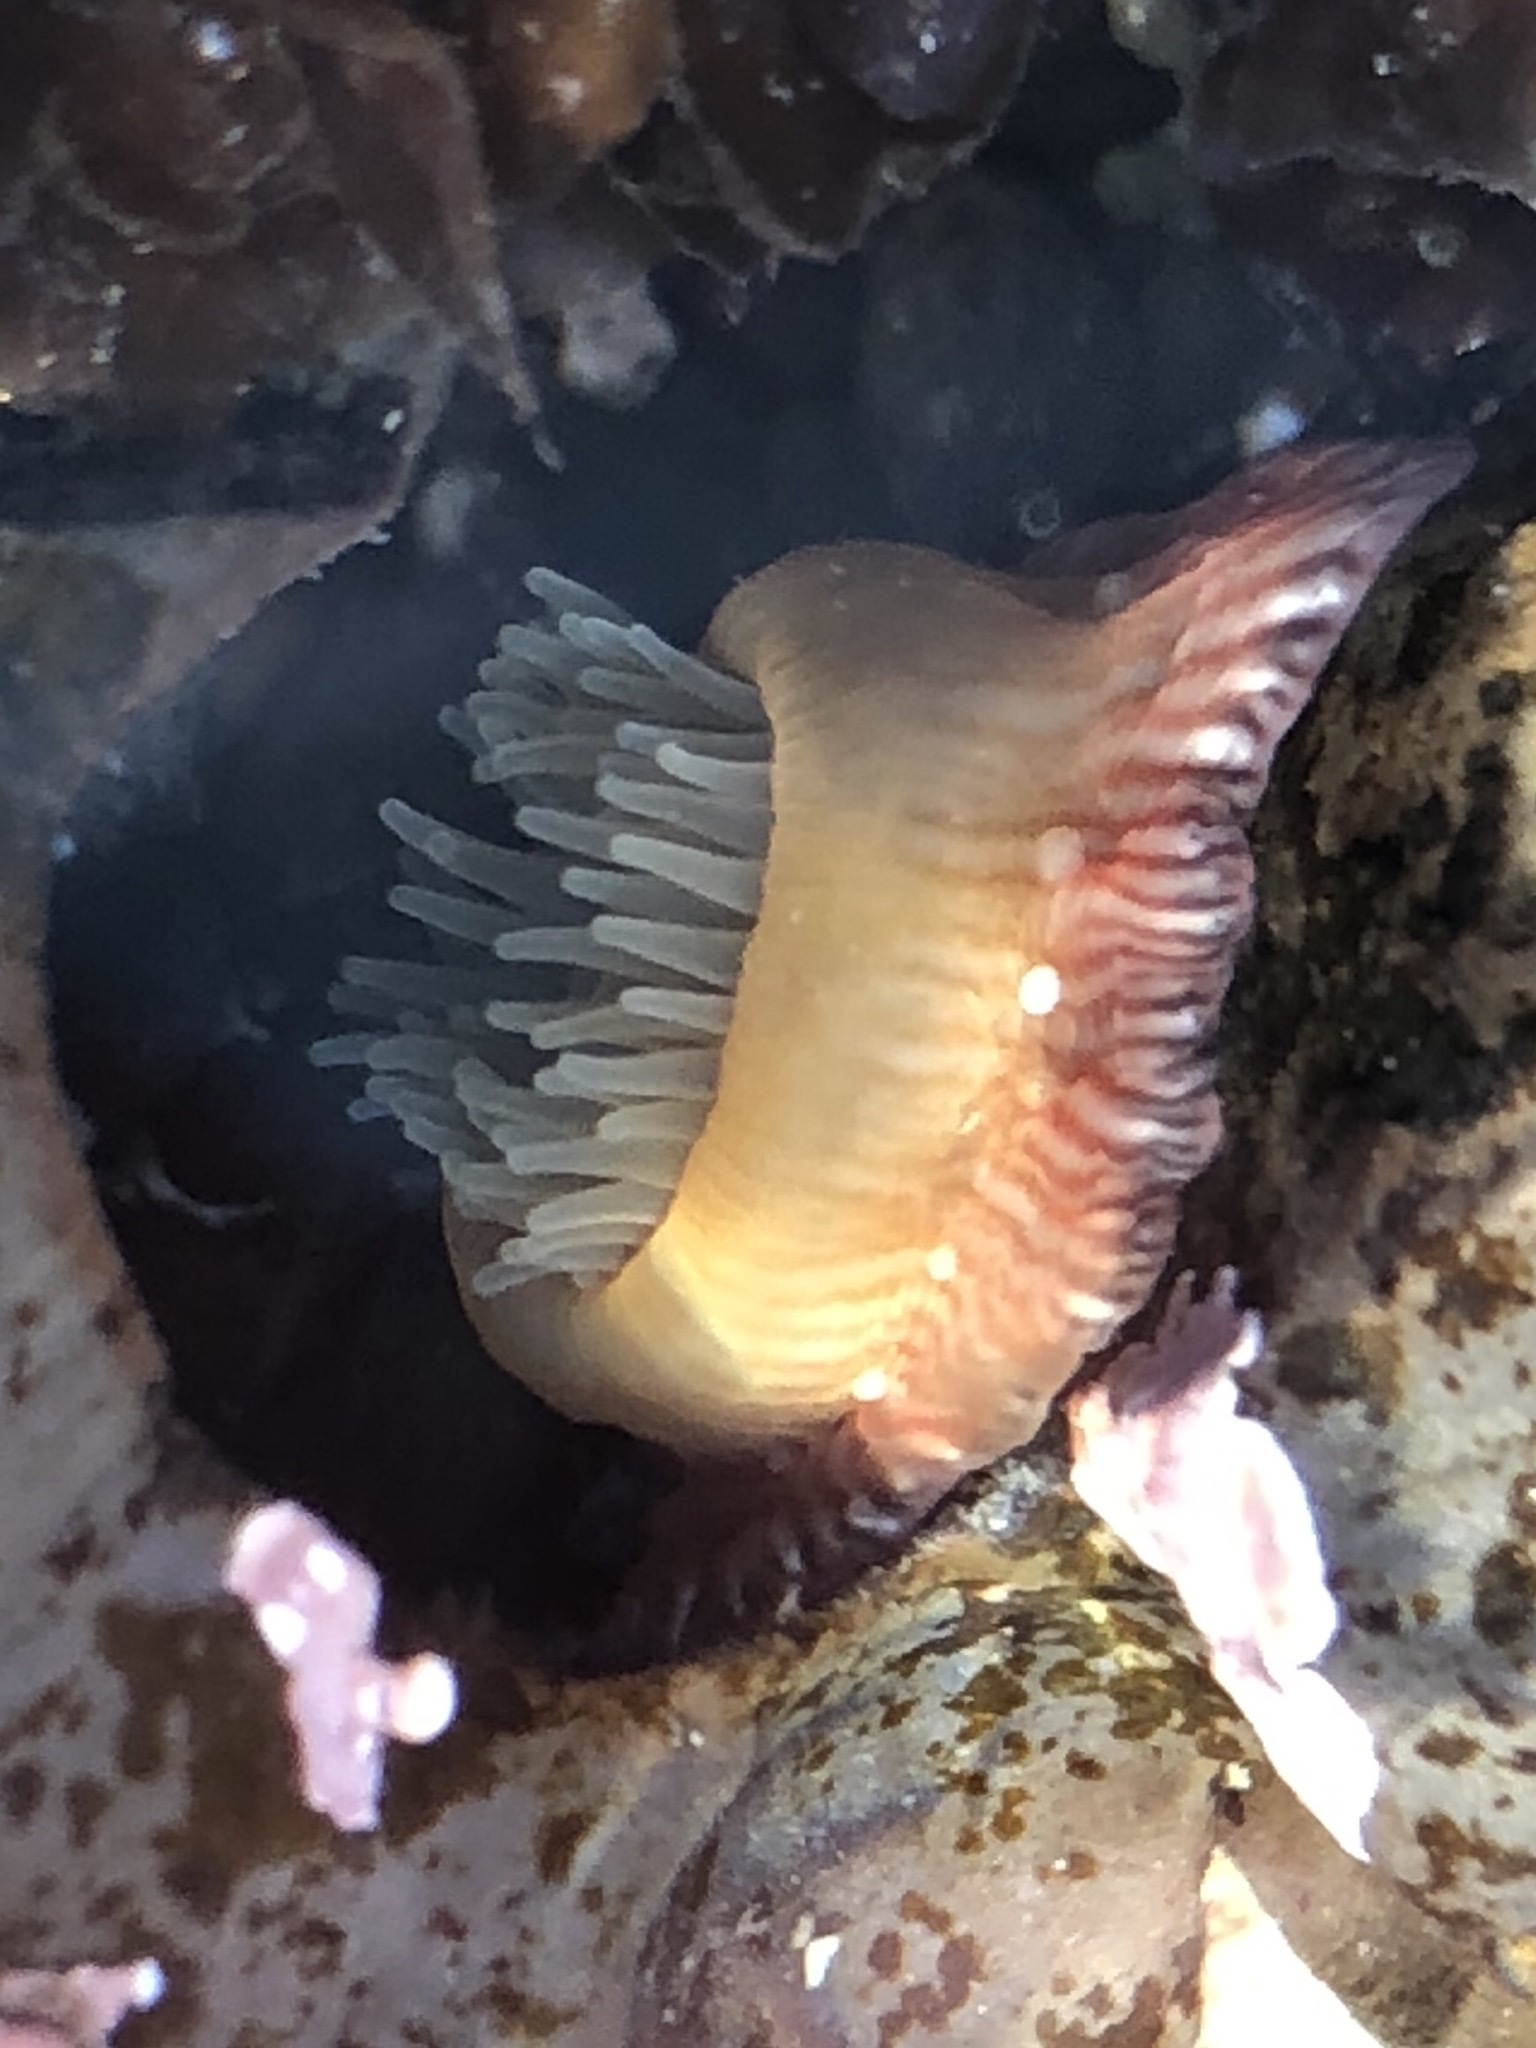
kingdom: Animalia
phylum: Cnidaria
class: Anthozoa
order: Actiniaria
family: Actiniidae
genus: Epiactis
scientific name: Epiactis prolifera
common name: Brooding anemone
